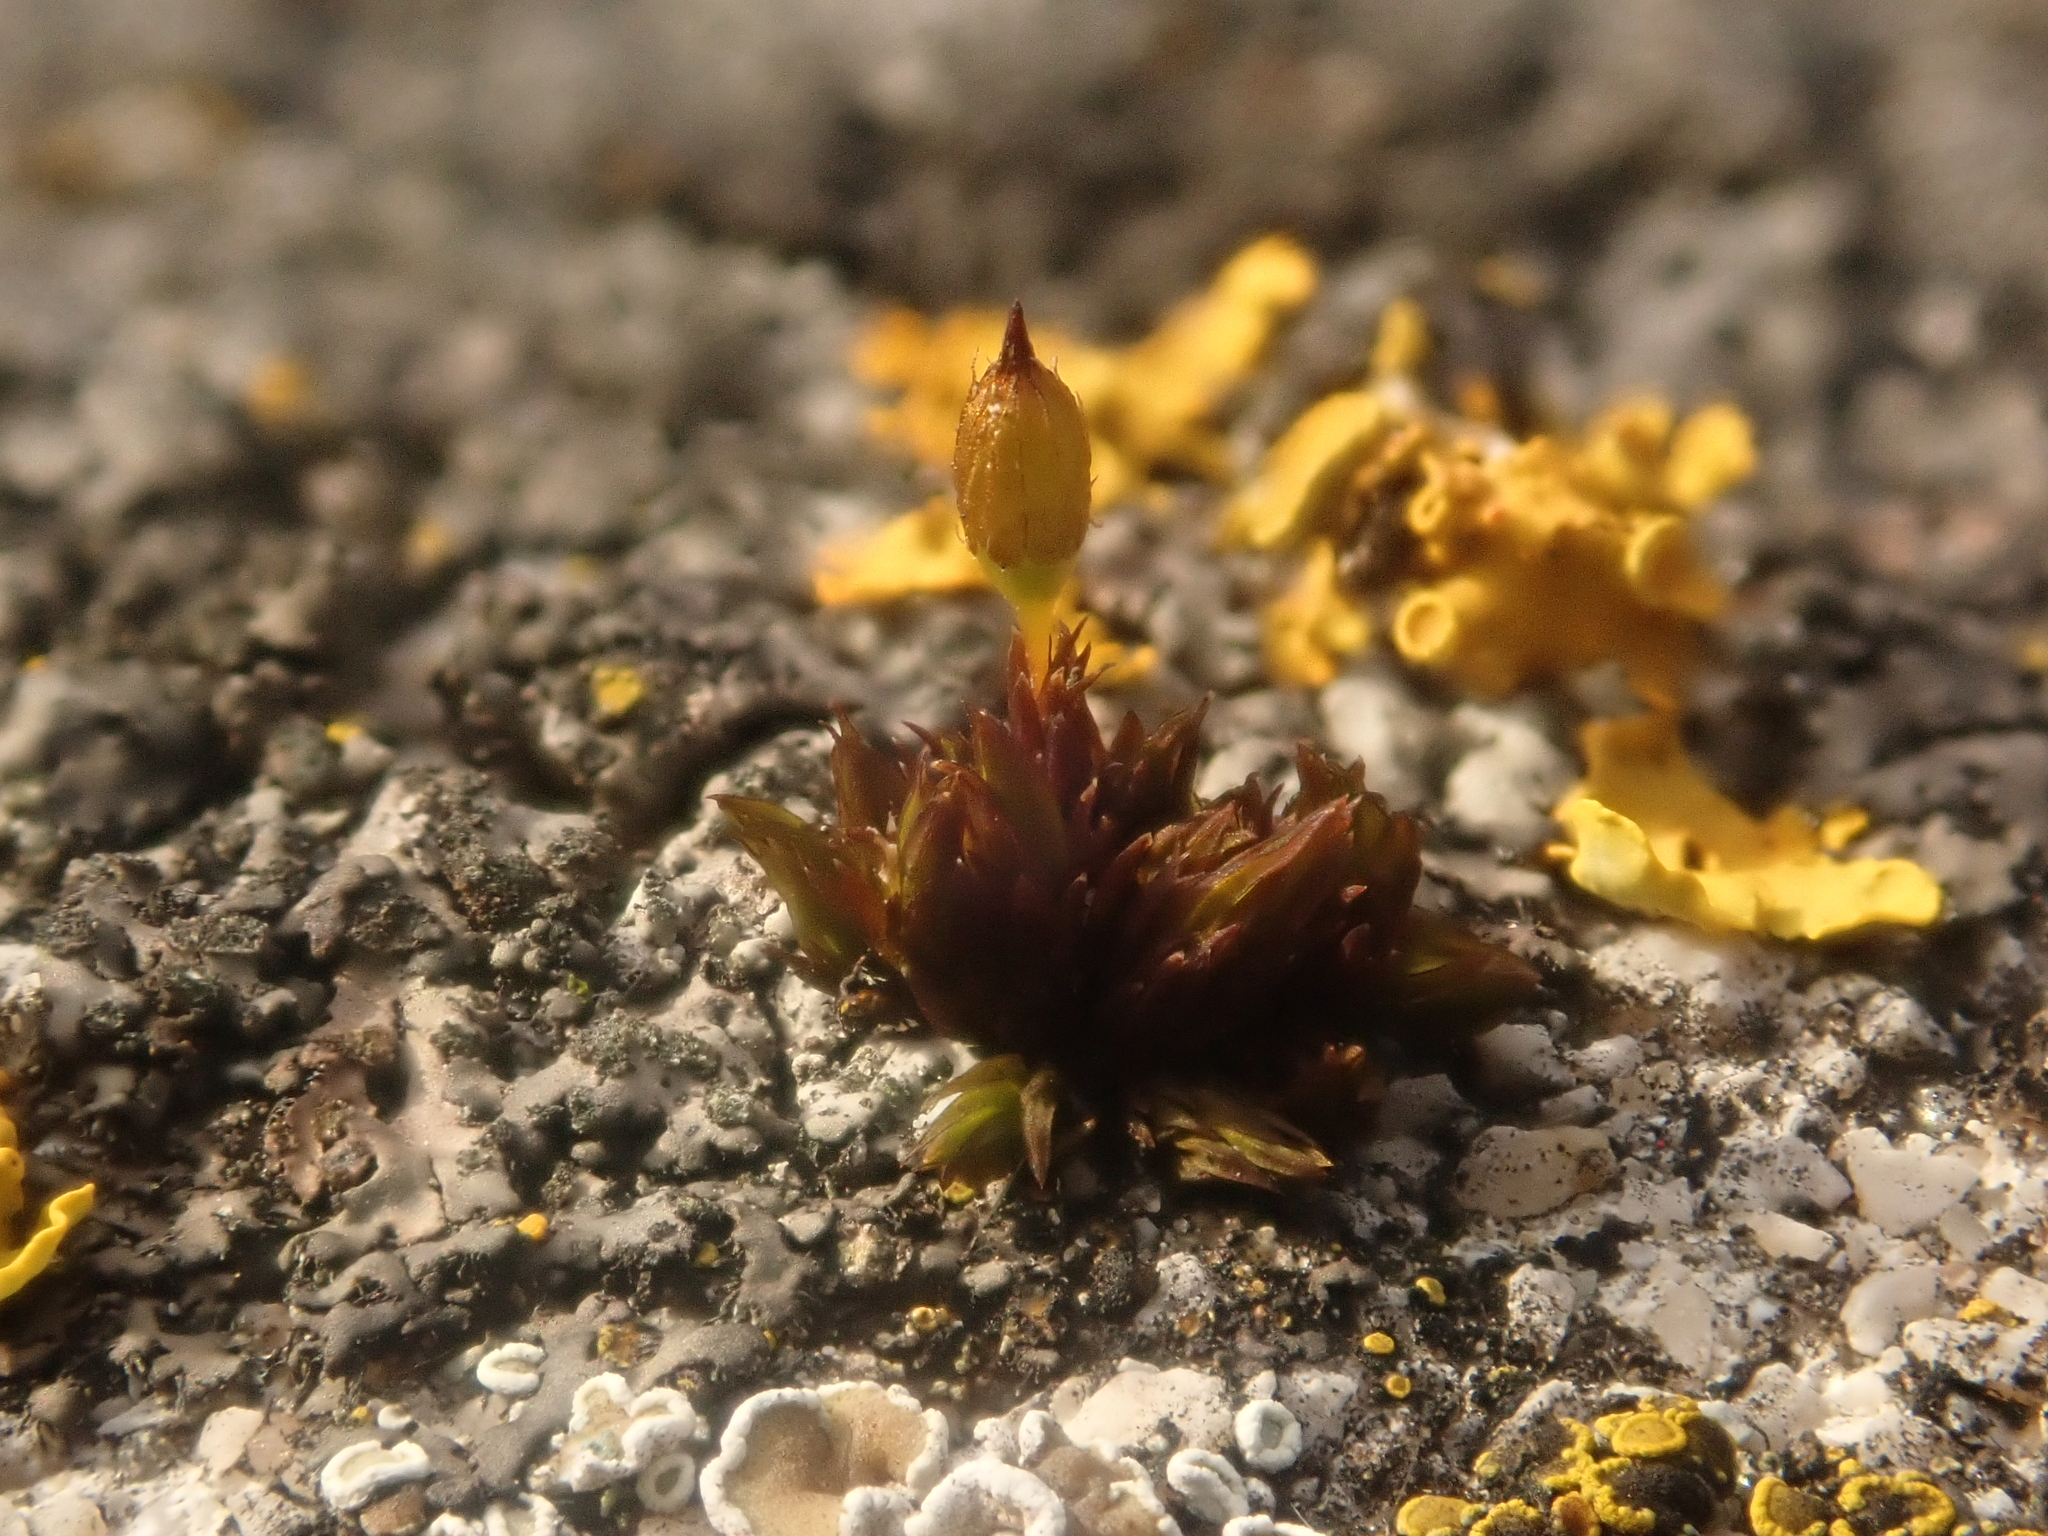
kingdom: Plantae
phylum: Bryophyta
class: Bryopsida
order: Orthotrichales
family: Orthotrichaceae
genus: Orthotrichum
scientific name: Orthotrichum anomalum
